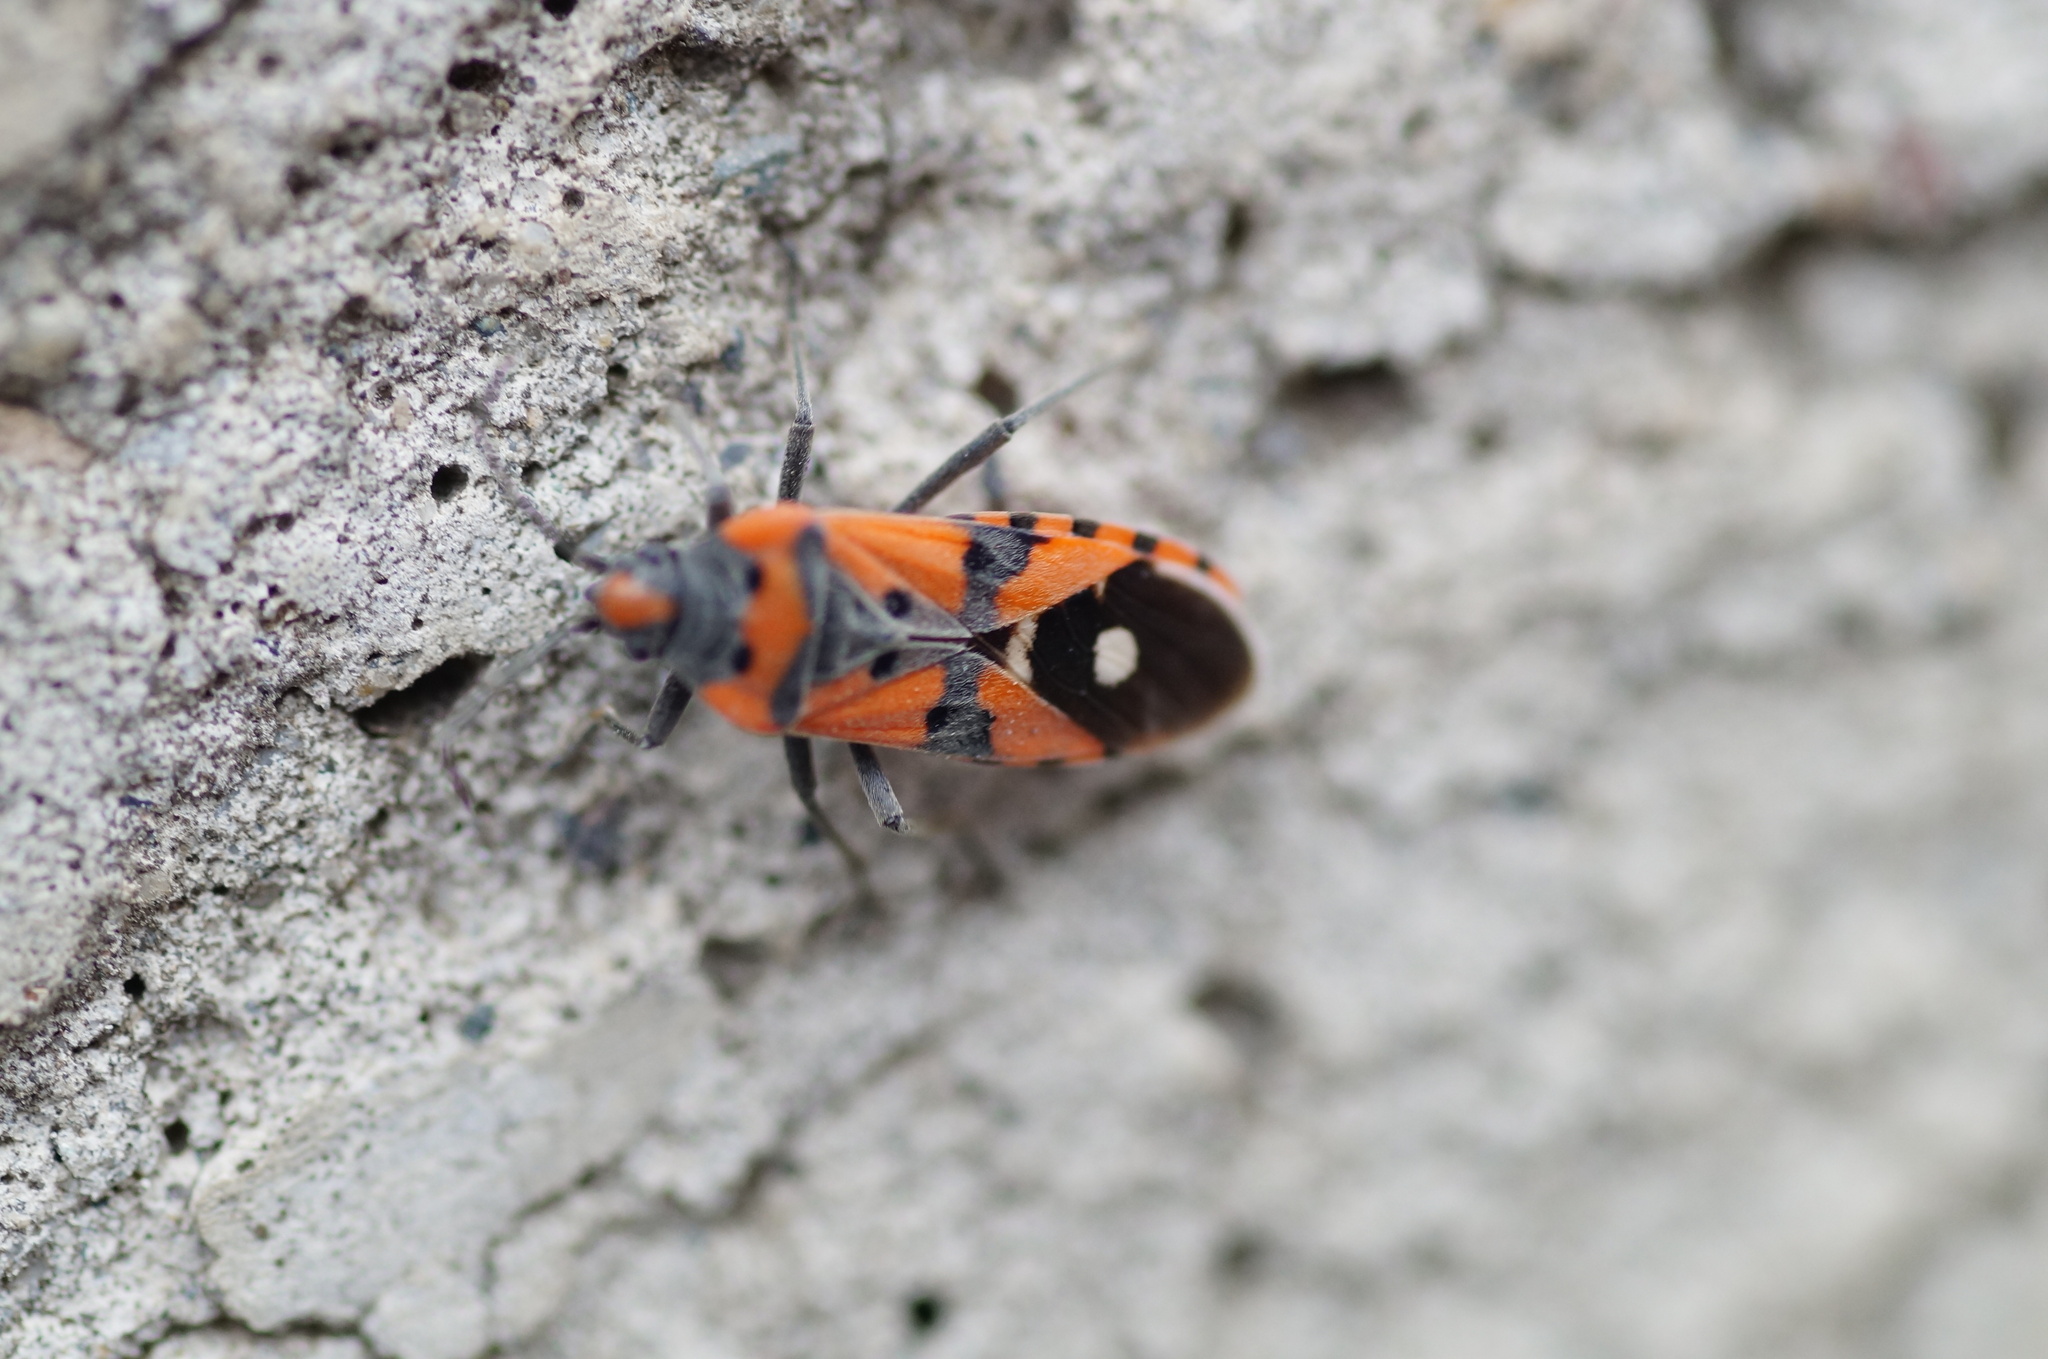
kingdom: Animalia
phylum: Arthropoda
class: Insecta
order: Hemiptera
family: Lygaeidae
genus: Lygaeus
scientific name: Lygaeus
